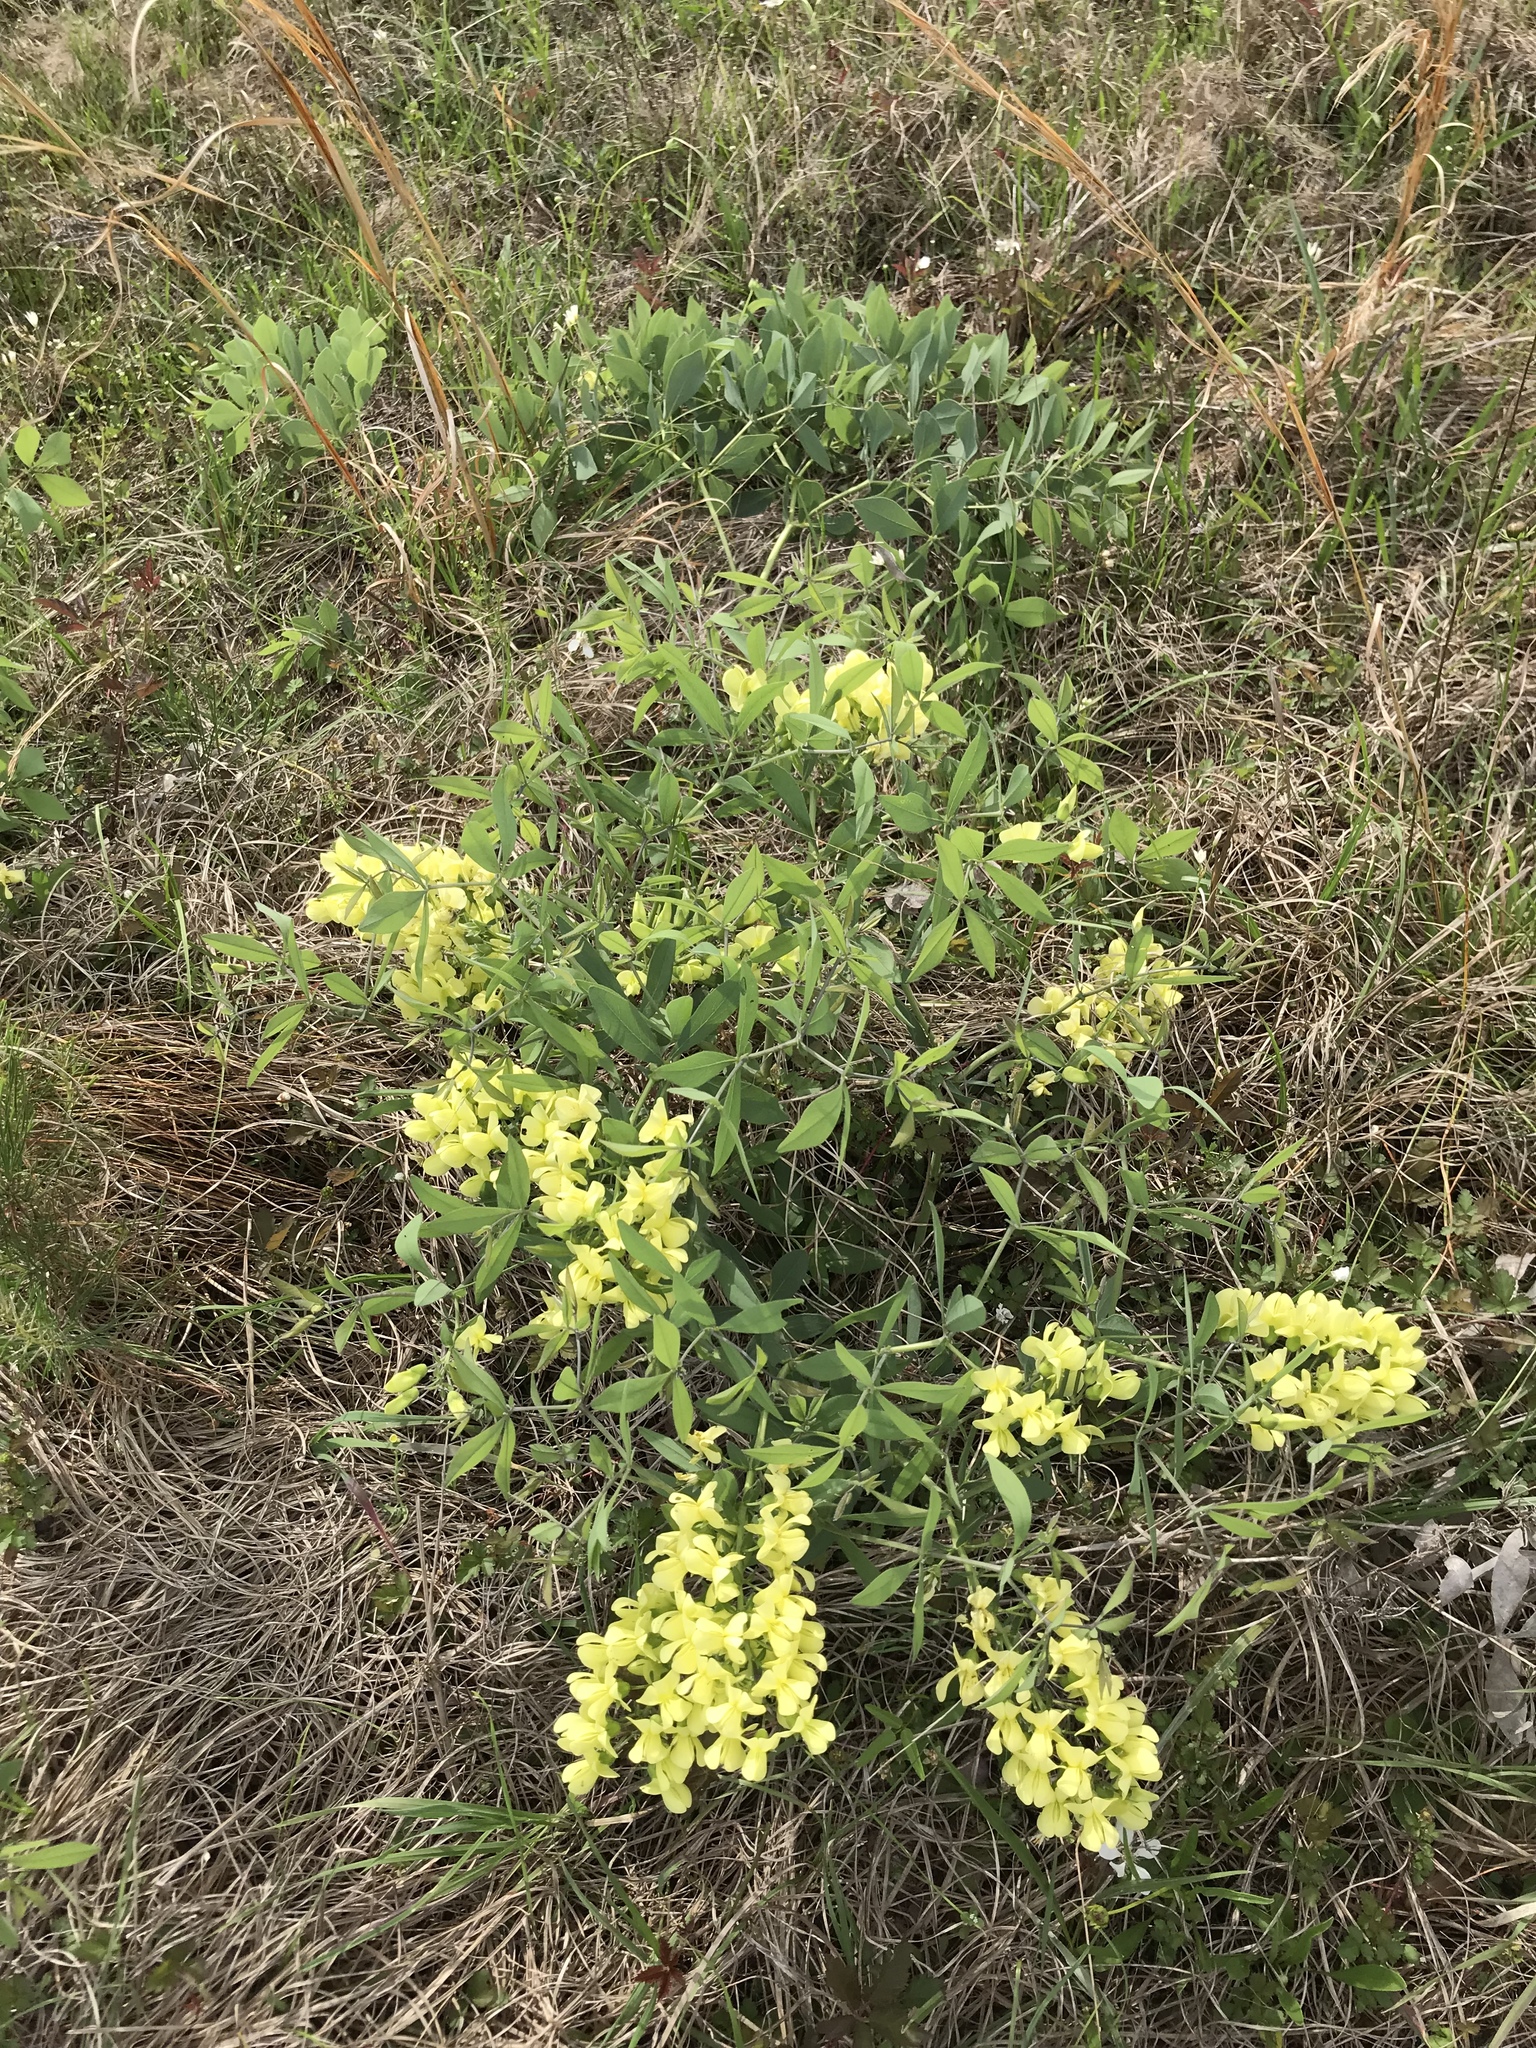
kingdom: Plantae
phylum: Tracheophyta
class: Magnoliopsida
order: Fabales
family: Fabaceae
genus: Baptisia
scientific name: Baptisia bracteata
